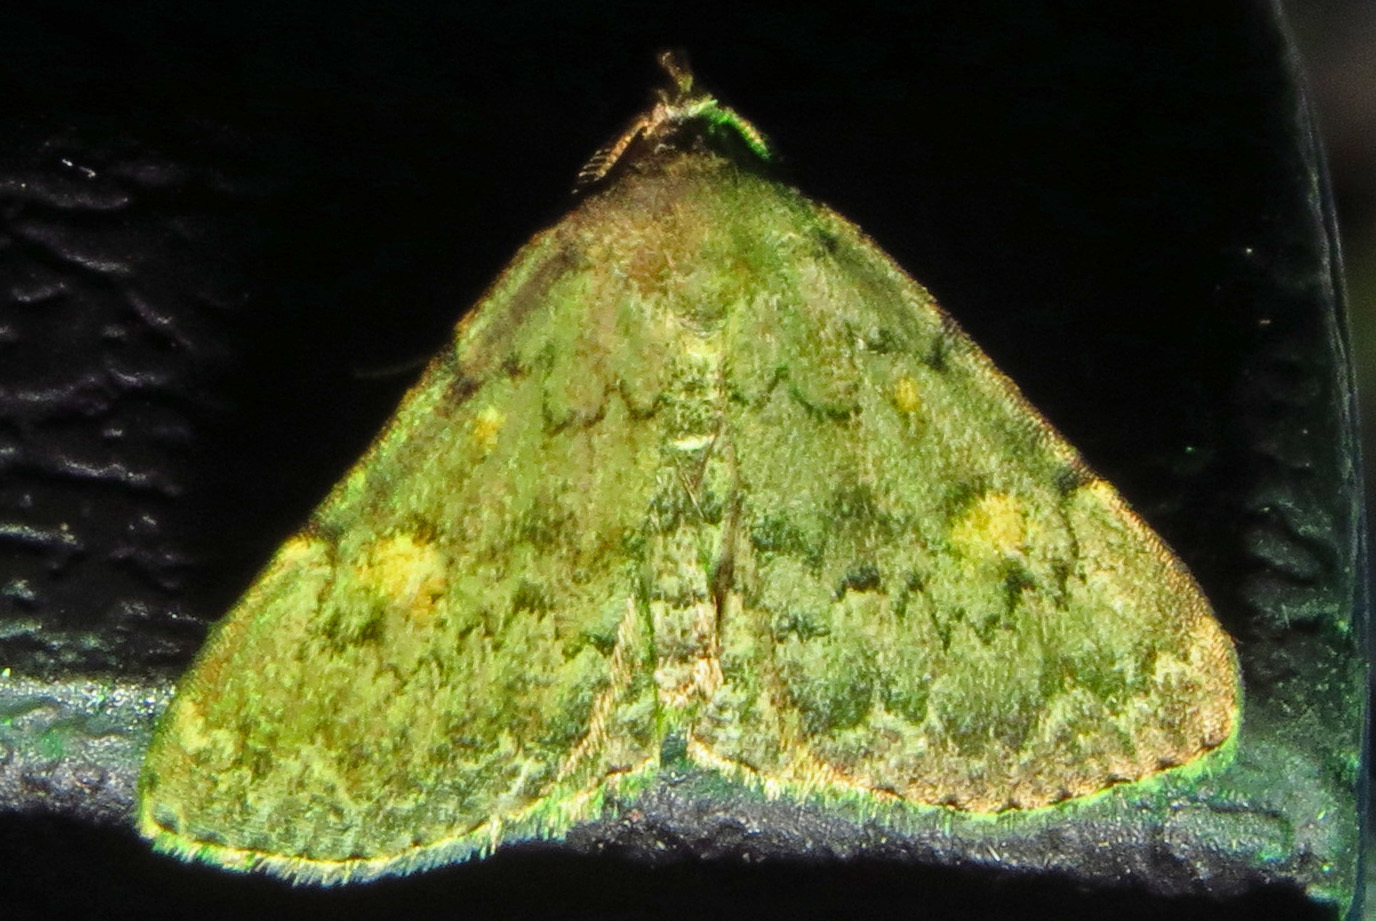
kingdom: Animalia
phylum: Arthropoda
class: Insecta
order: Lepidoptera
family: Erebidae
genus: Idia
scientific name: Idia aemula
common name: Common idia moth
